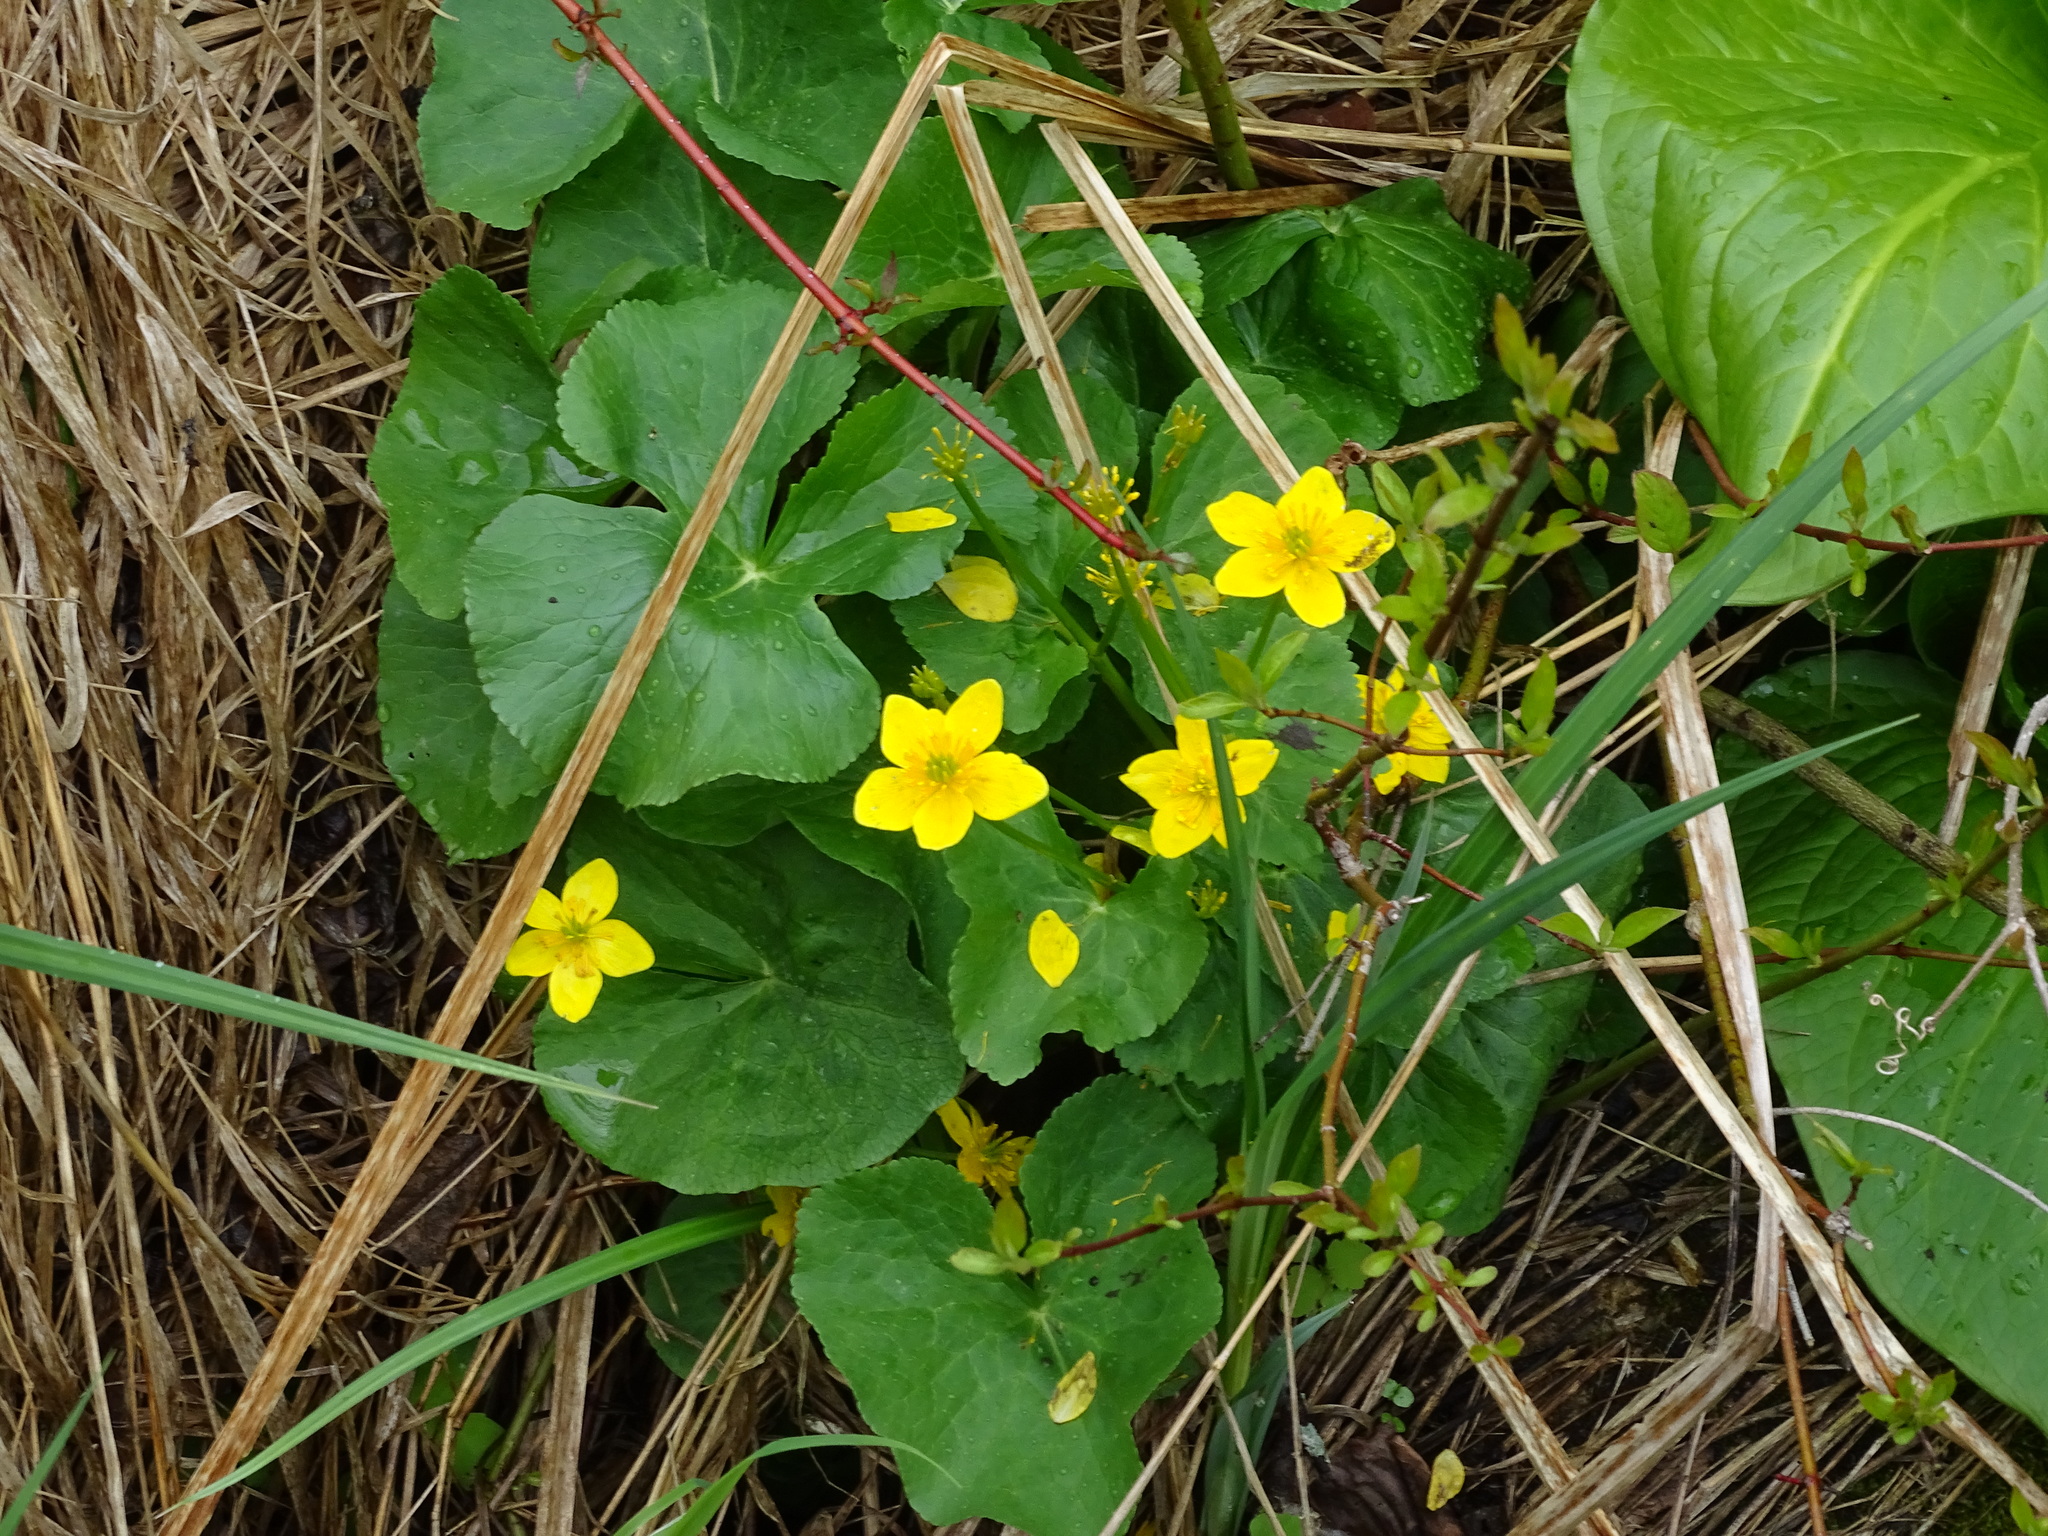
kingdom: Plantae
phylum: Tracheophyta
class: Magnoliopsida
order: Ranunculales
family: Ranunculaceae
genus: Caltha
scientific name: Caltha palustris
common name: Marsh marigold
